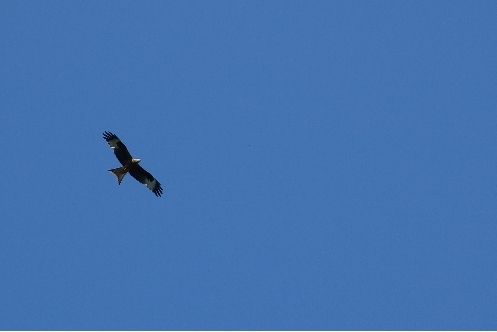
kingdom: Animalia
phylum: Chordata
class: Aves
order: Accipitriformes
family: Accipitridae
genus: Milvus
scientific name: Milvus milvus
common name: Red kite
